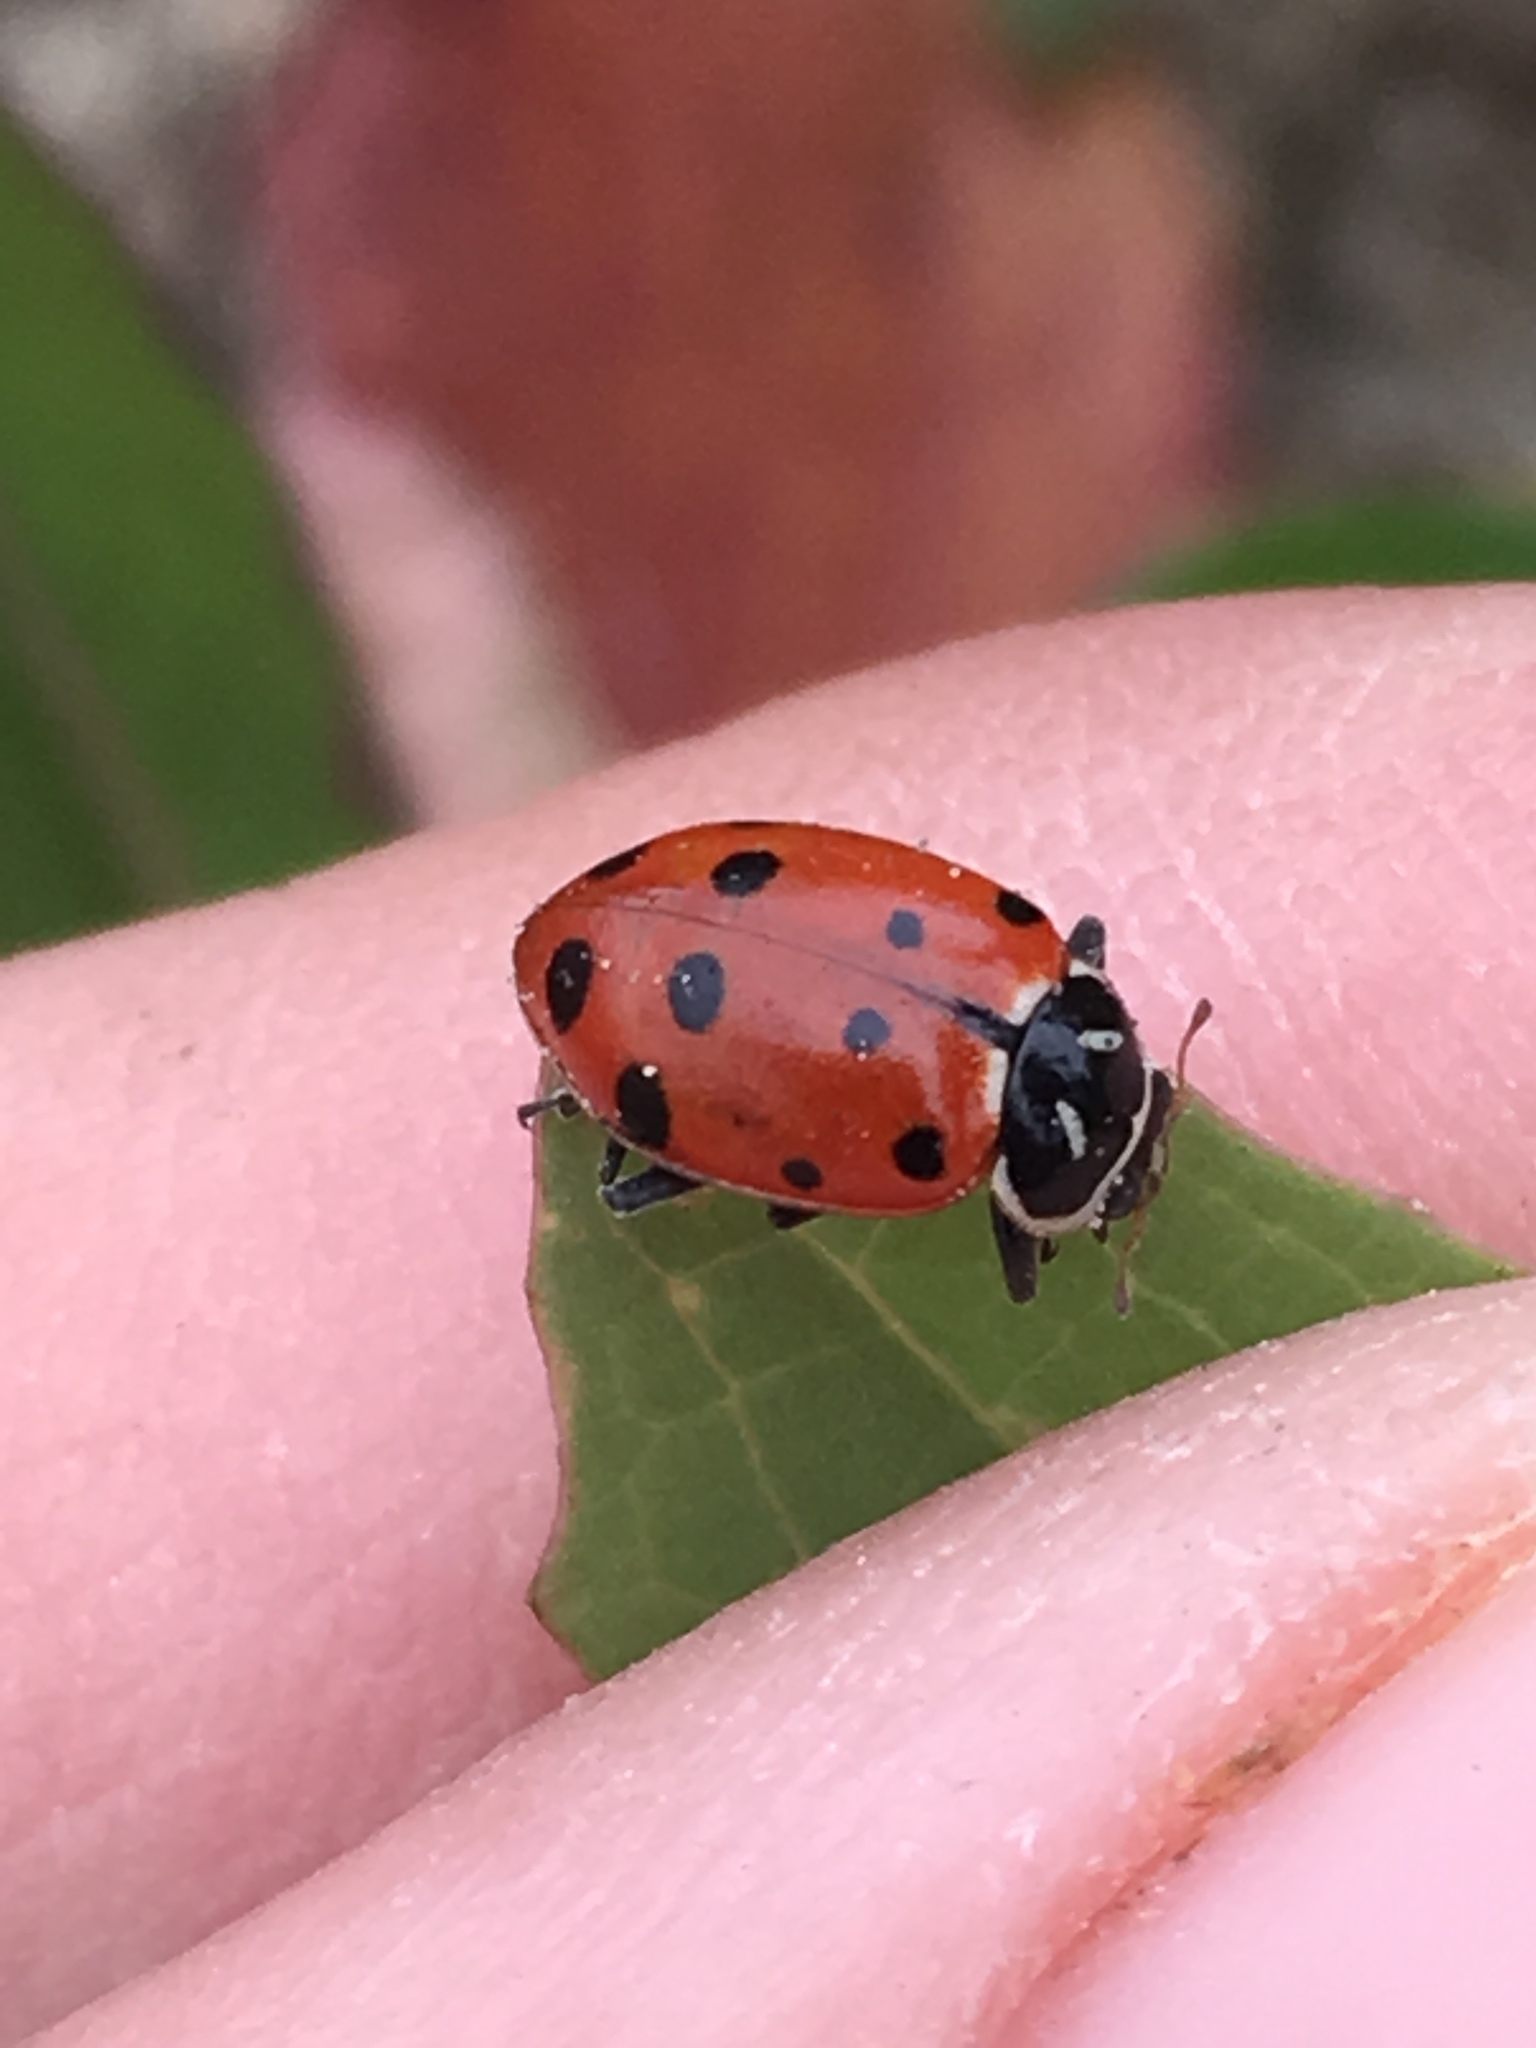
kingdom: Animalia
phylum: Arthropoda
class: Insecta
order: Coleoptera
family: Coccinellidae
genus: Hippodamia
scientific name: Hippodamia convergens
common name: Convergent lady beetle
